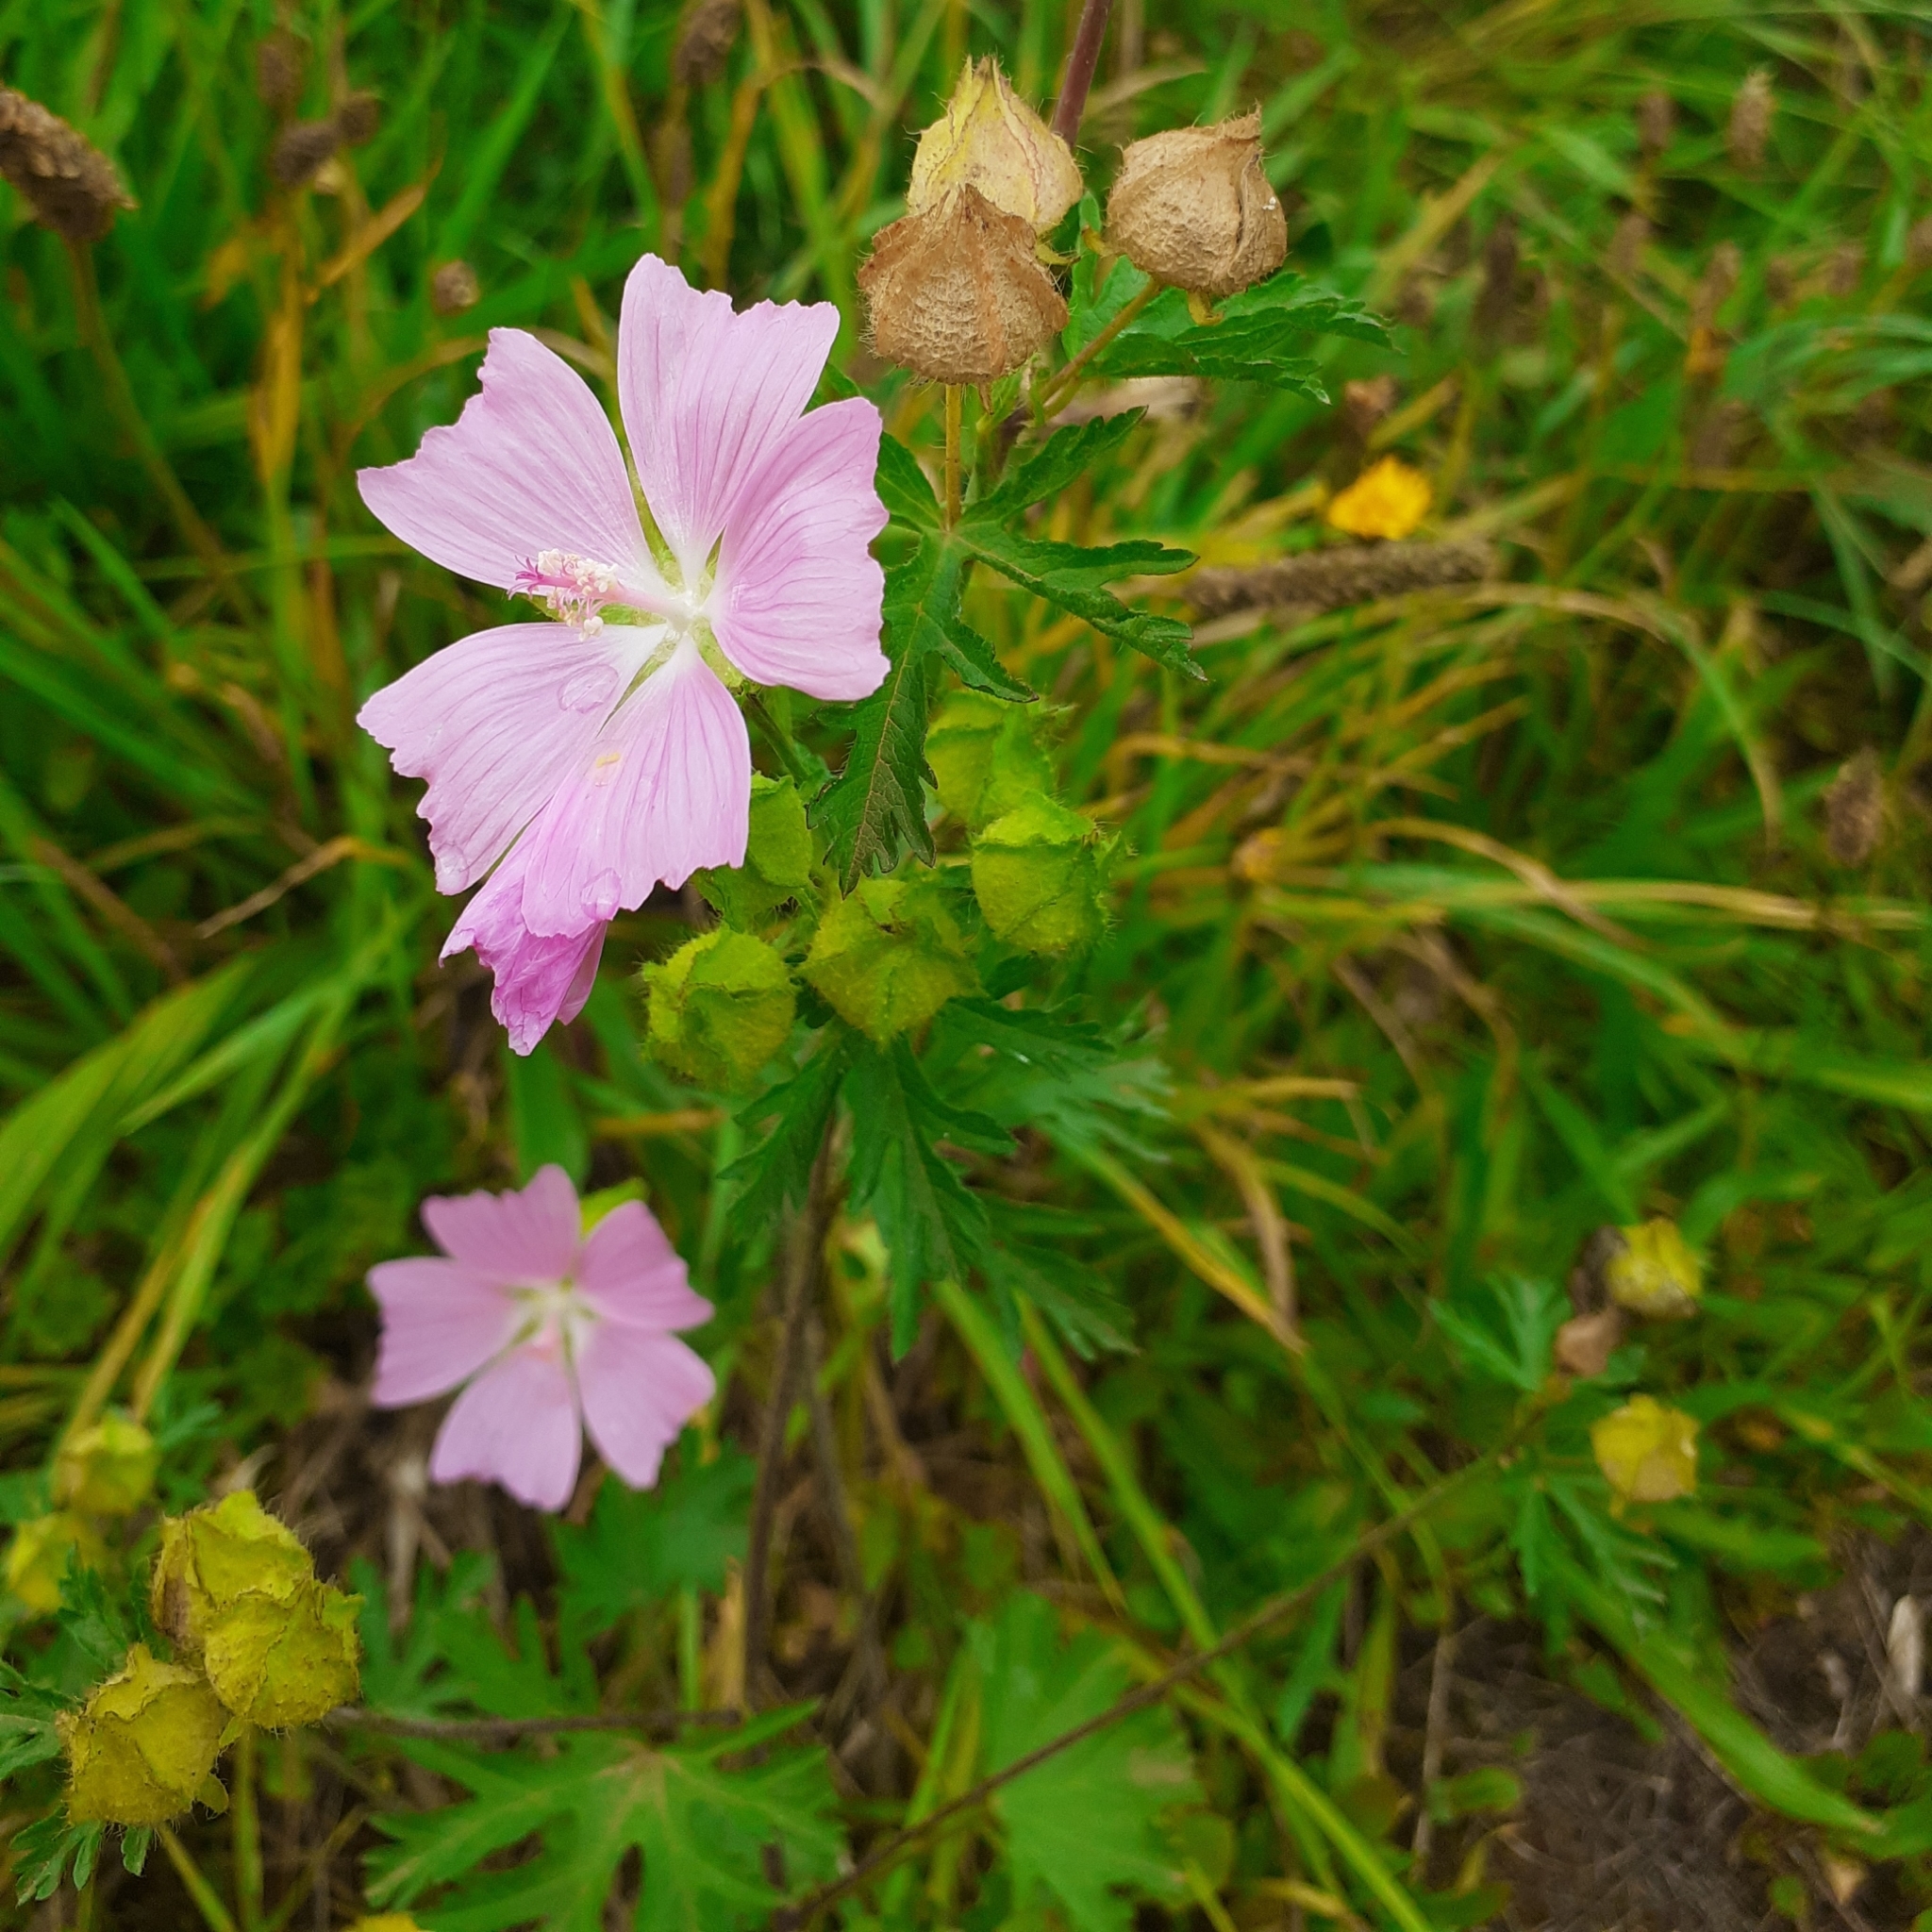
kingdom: Plantae
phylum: Tracheophyta
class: Magnoliopsida
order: Malvales
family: Malvaceae
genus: Malva
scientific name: Malva moschata
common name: Musk mallow
